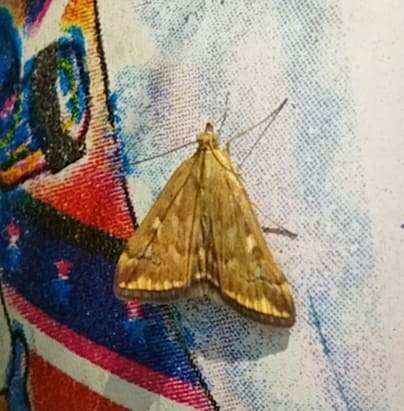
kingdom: Animalia
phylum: Arthropoda
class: Insecta
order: Lepidoptera
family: Crambidae
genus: Loxostege
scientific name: Loxostege sticticalis
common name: Crambid moth
